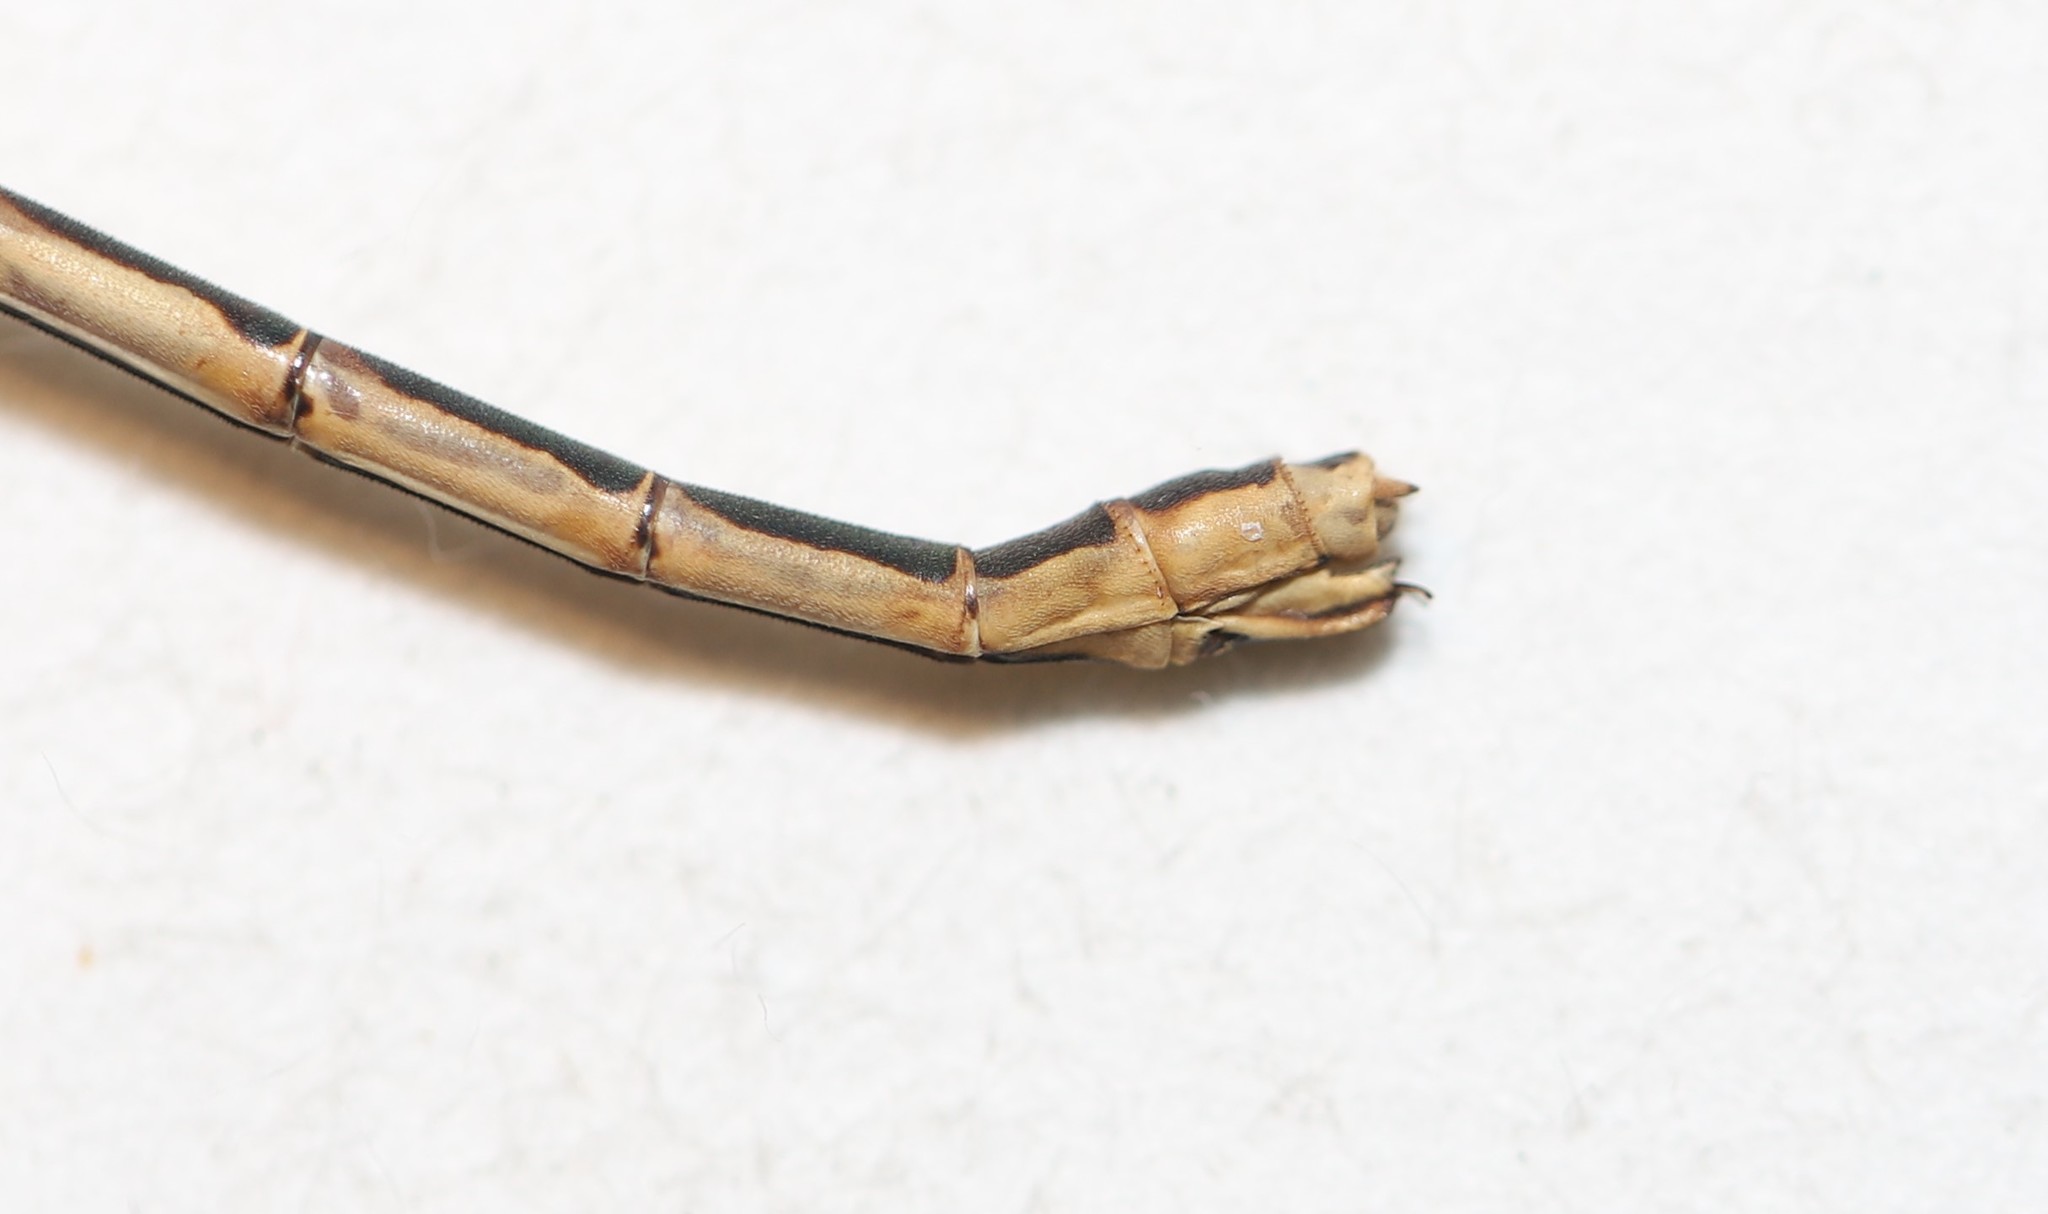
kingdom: Animalia
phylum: Arthropoda
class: Insecta
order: Odonata
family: Lestidae
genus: Lestes
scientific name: Lestes disjunctus
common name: Northern spreadwing
